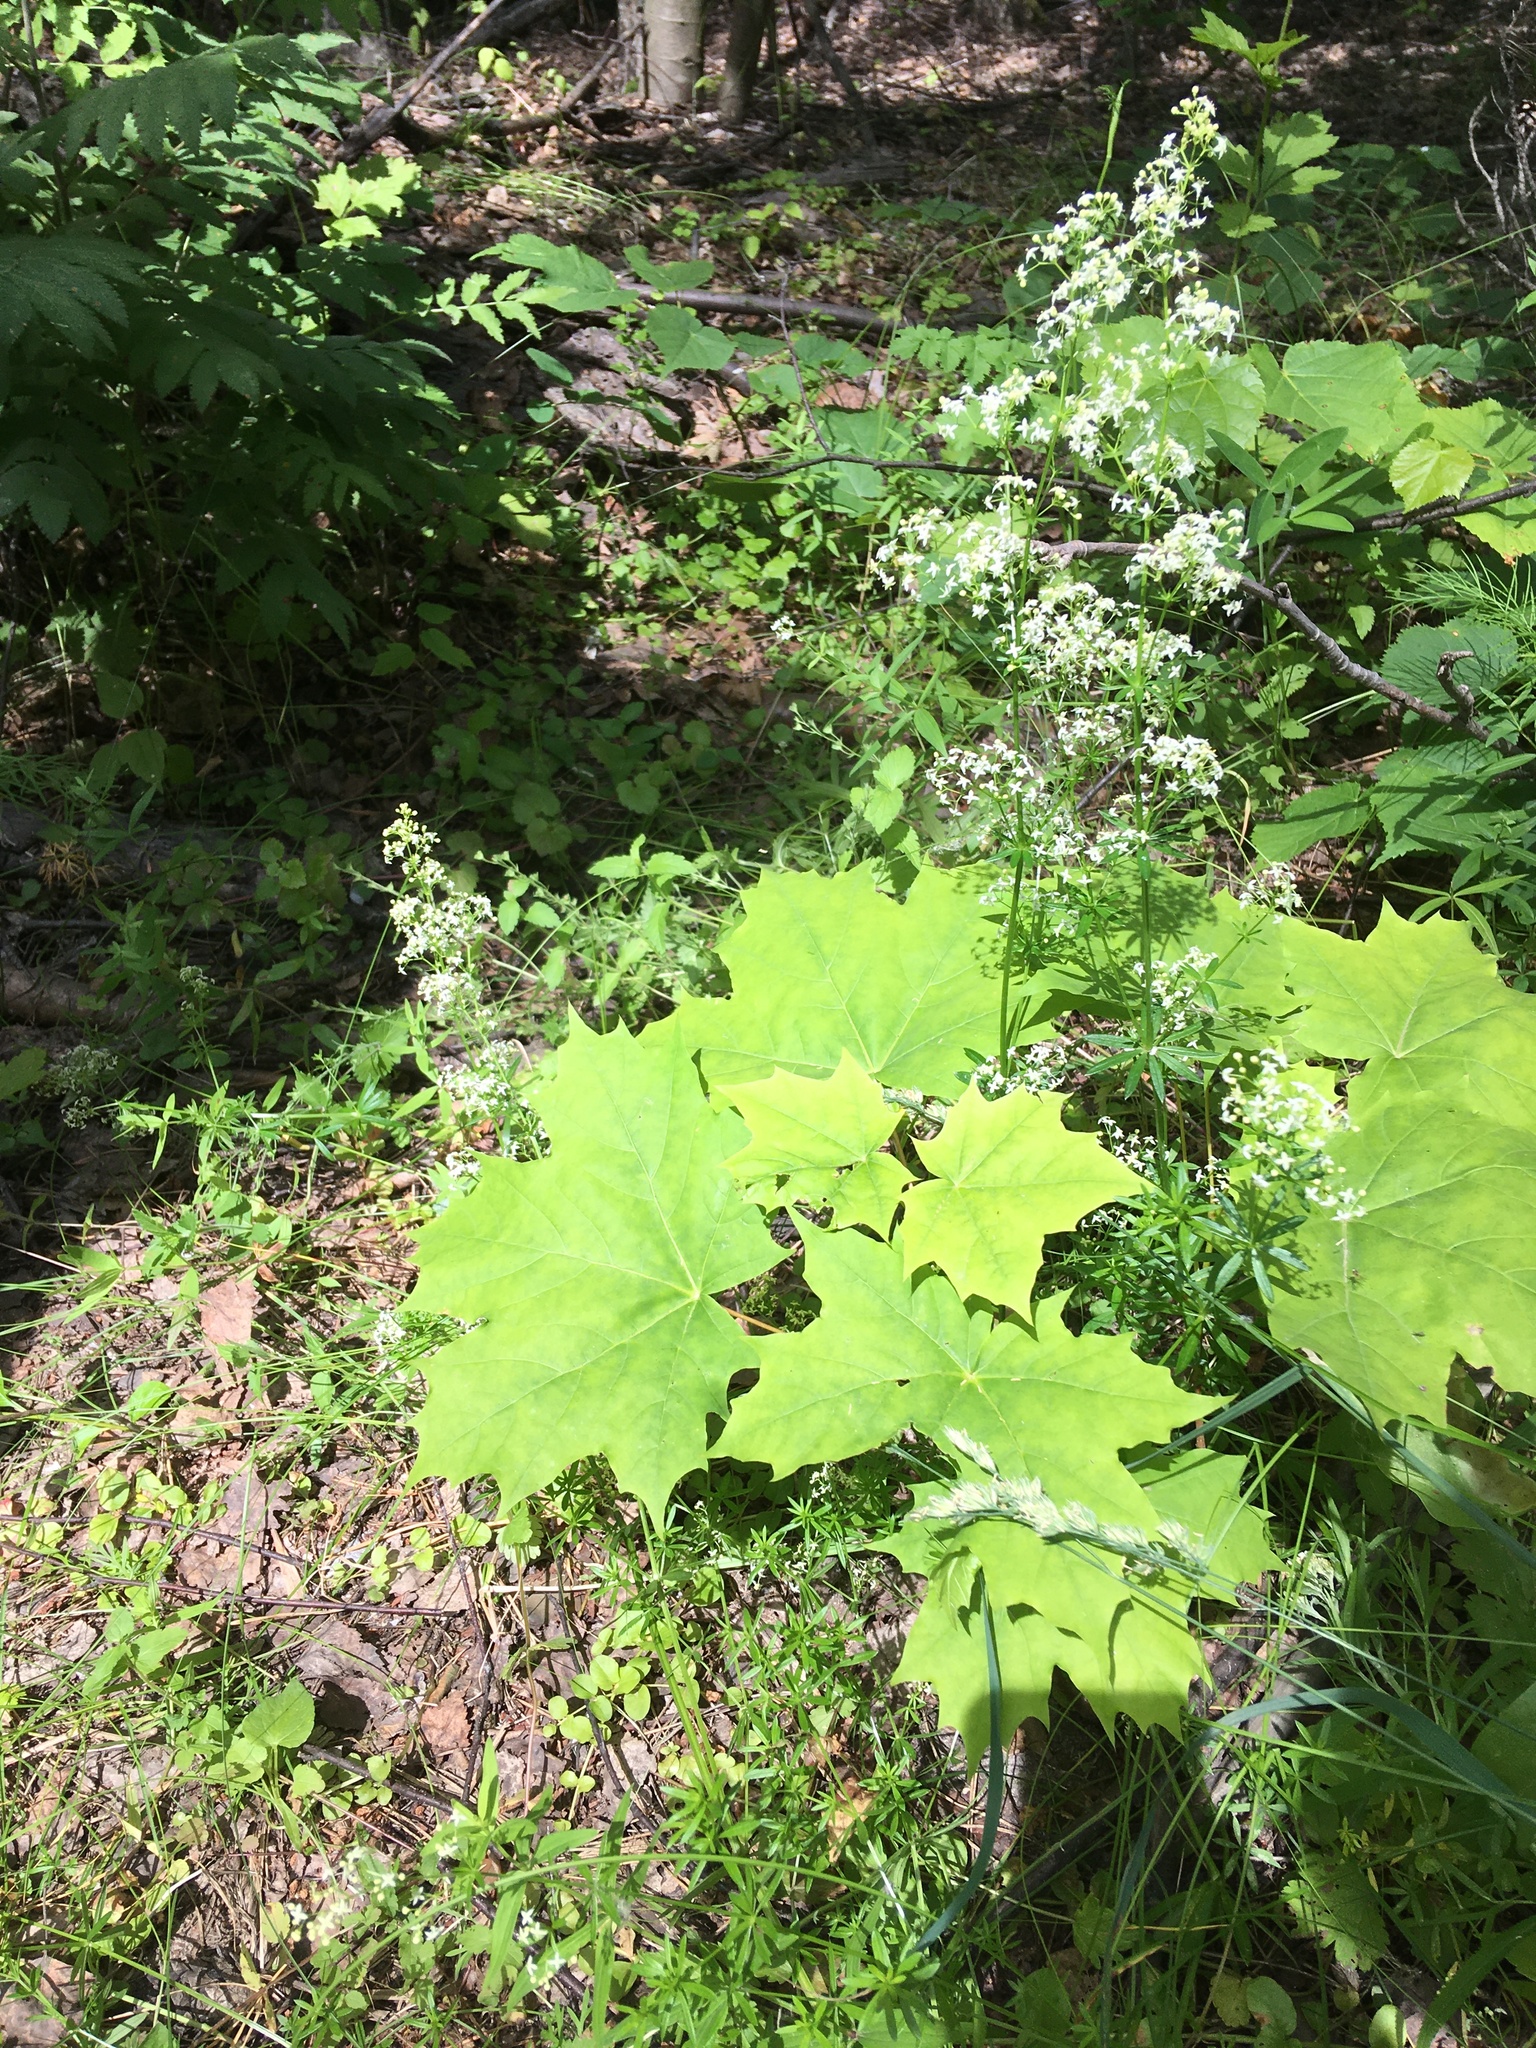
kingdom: Plantae
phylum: Tracheophyta
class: Magnoliopsida
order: Sapindales
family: Sapindaceae
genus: Acer
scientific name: Acer platanoides
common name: Norway maple
